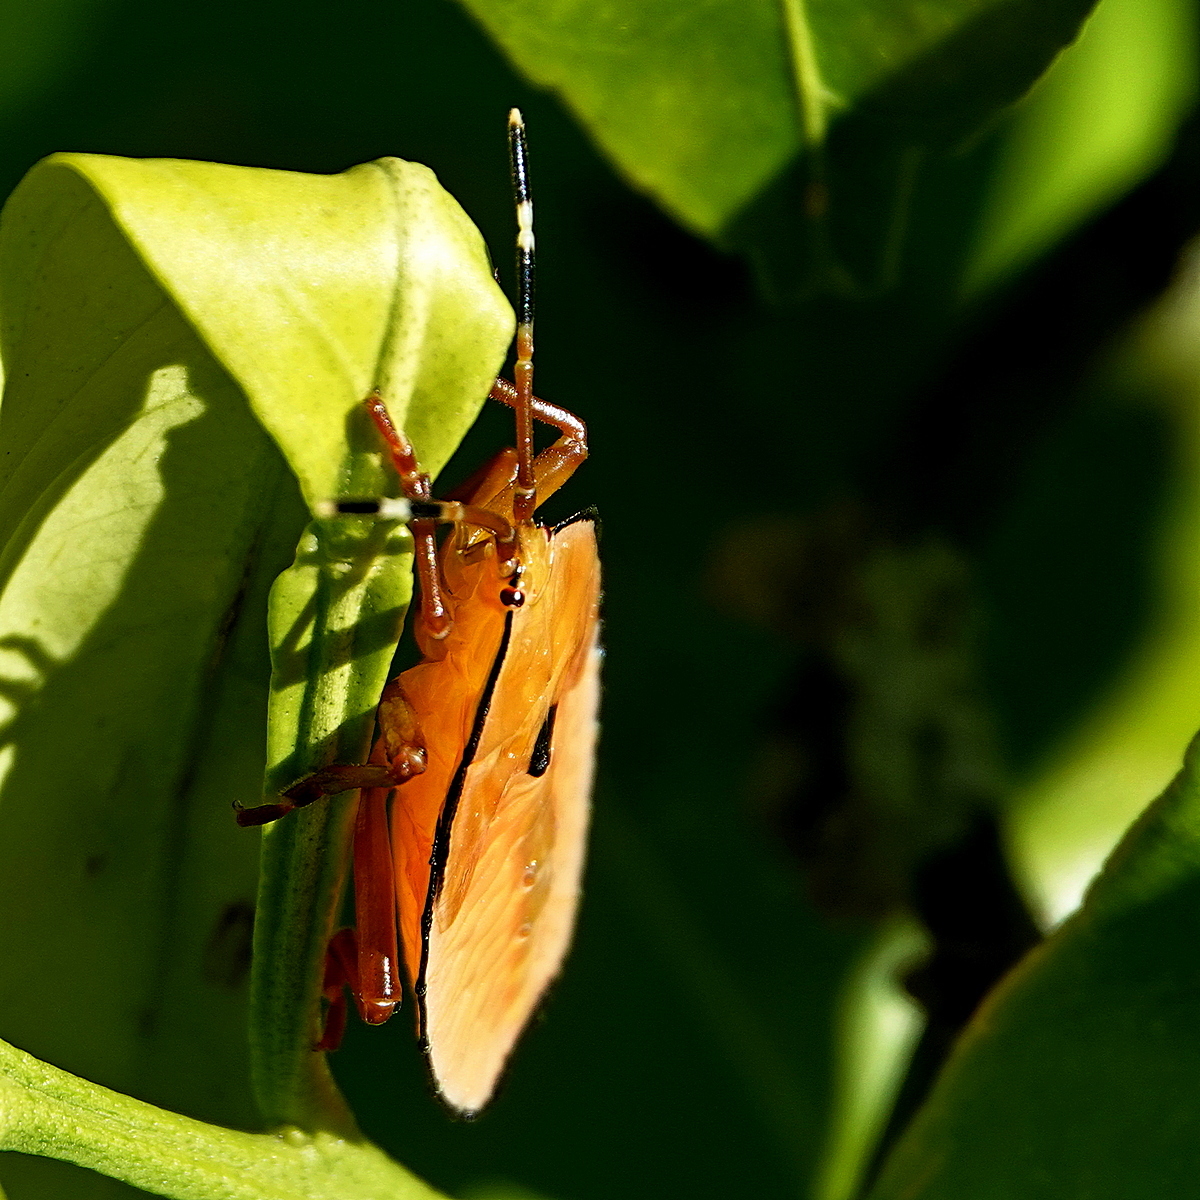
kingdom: Animalia
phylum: Arthropoda
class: Insecta
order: Hemiptera
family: Tessaratomidae
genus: Musgraveia
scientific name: Musgraveia sulciventris
